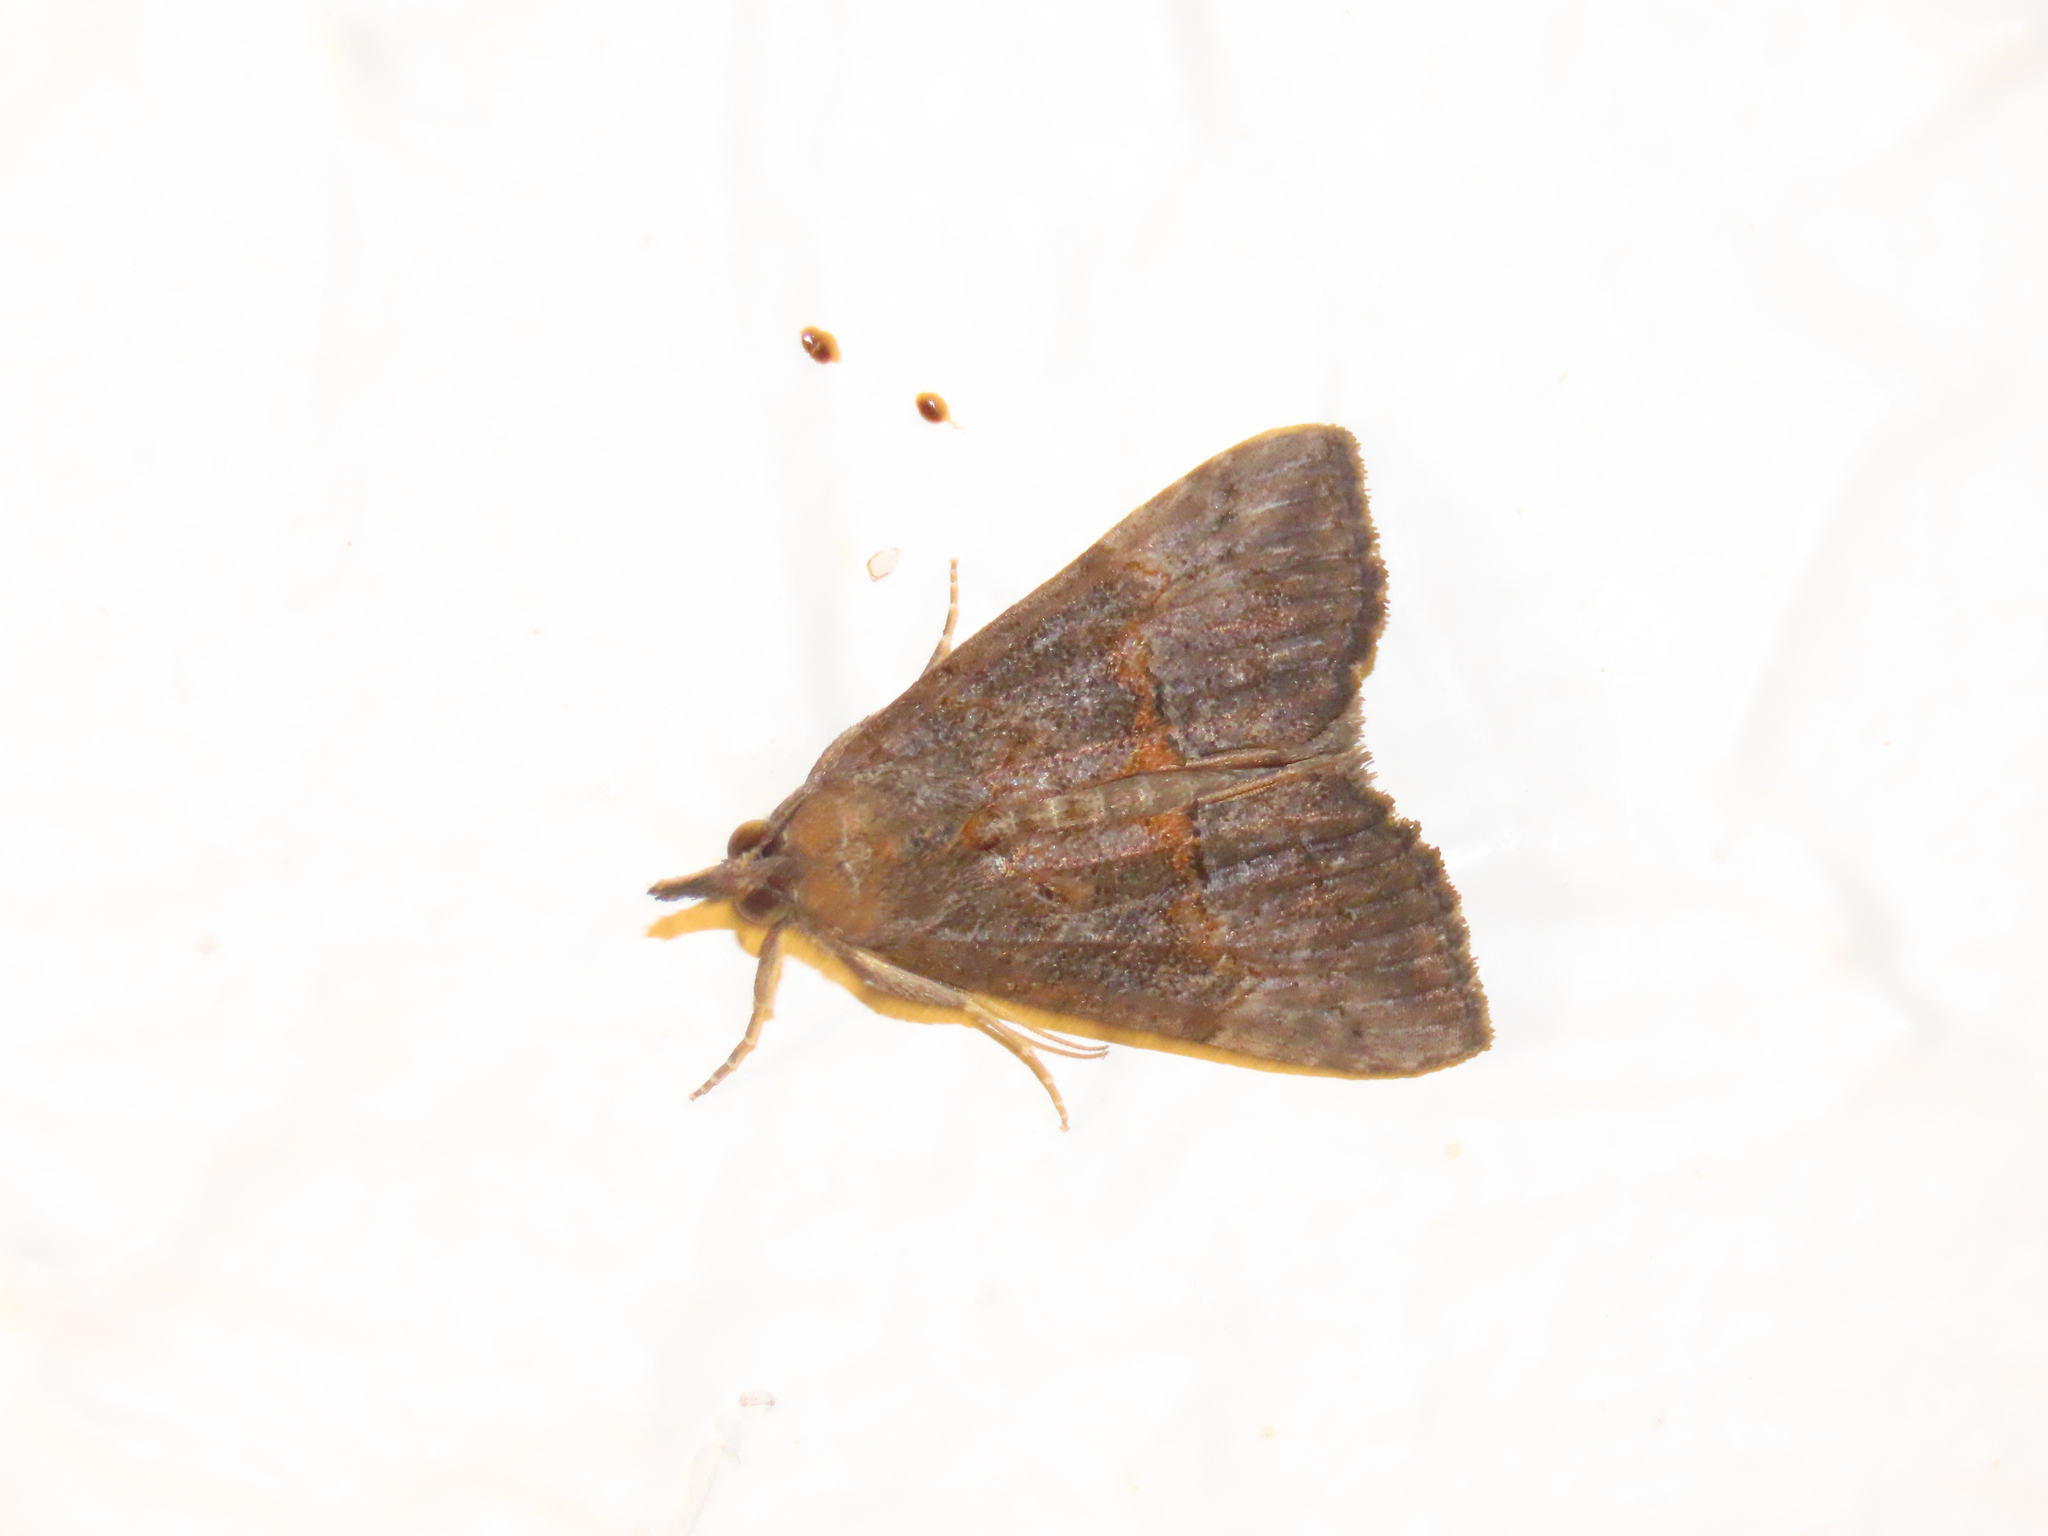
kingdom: Animalia
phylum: Arthropoda
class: Insecta
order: Lepidoptera
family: Erebidae
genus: Hypena
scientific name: Hypena scabra
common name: Green cloverworm
